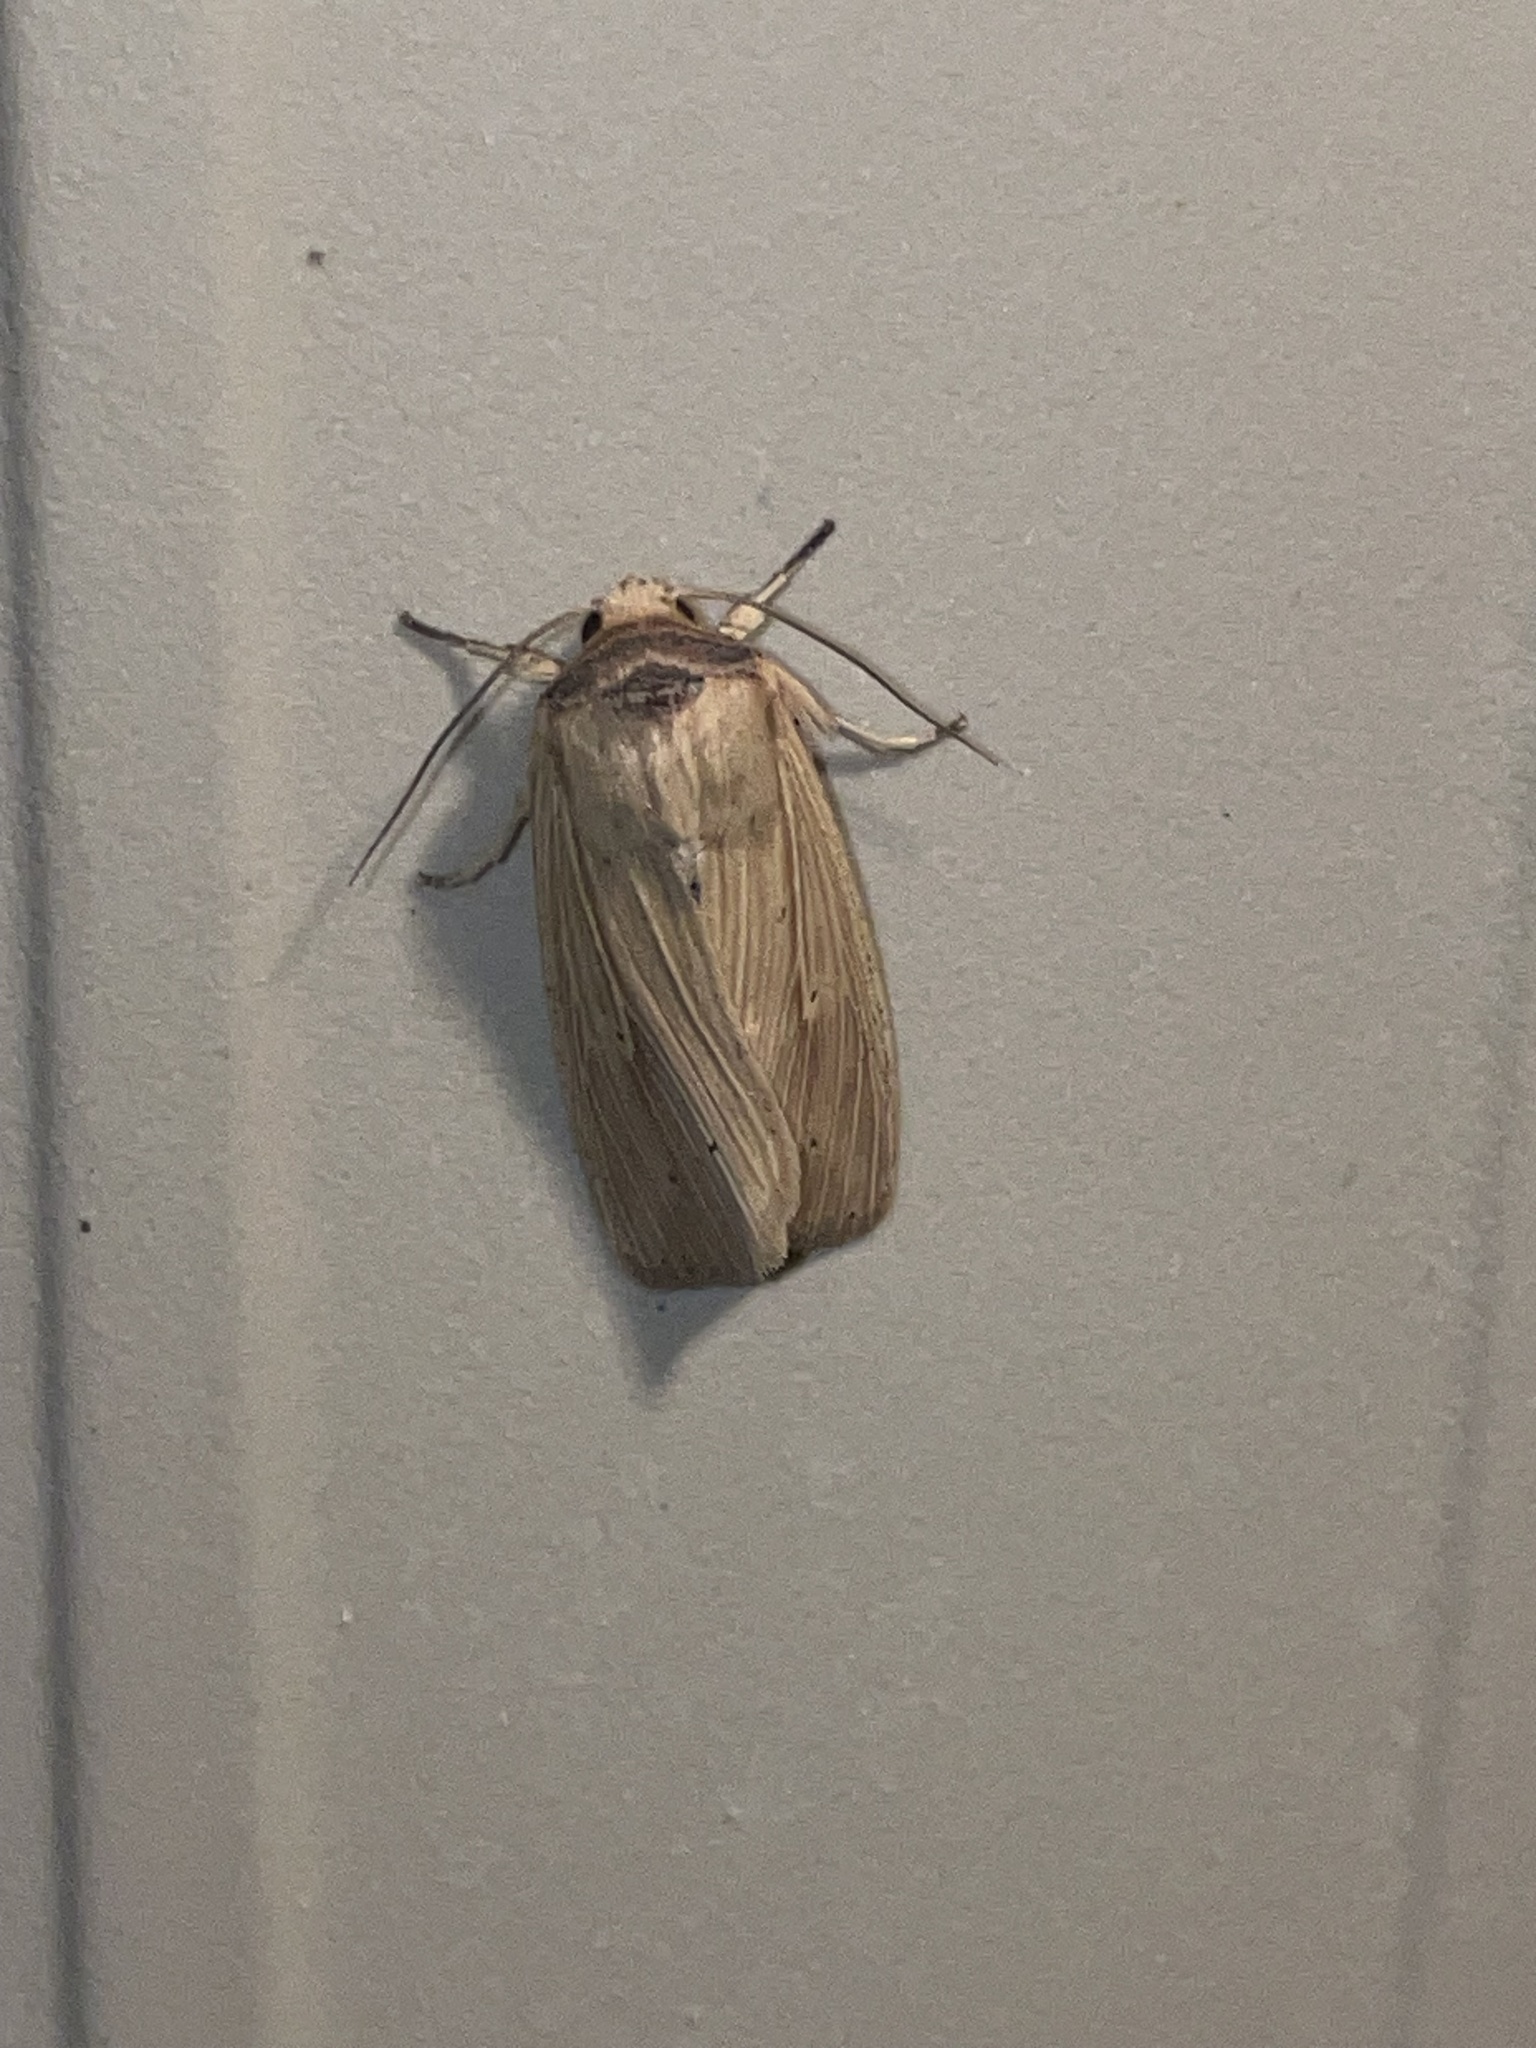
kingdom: Animalia
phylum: Arthropoda
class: Insecta
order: Lepidoptera
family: Noctuidae
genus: Leucania
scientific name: Leucania adjuta
